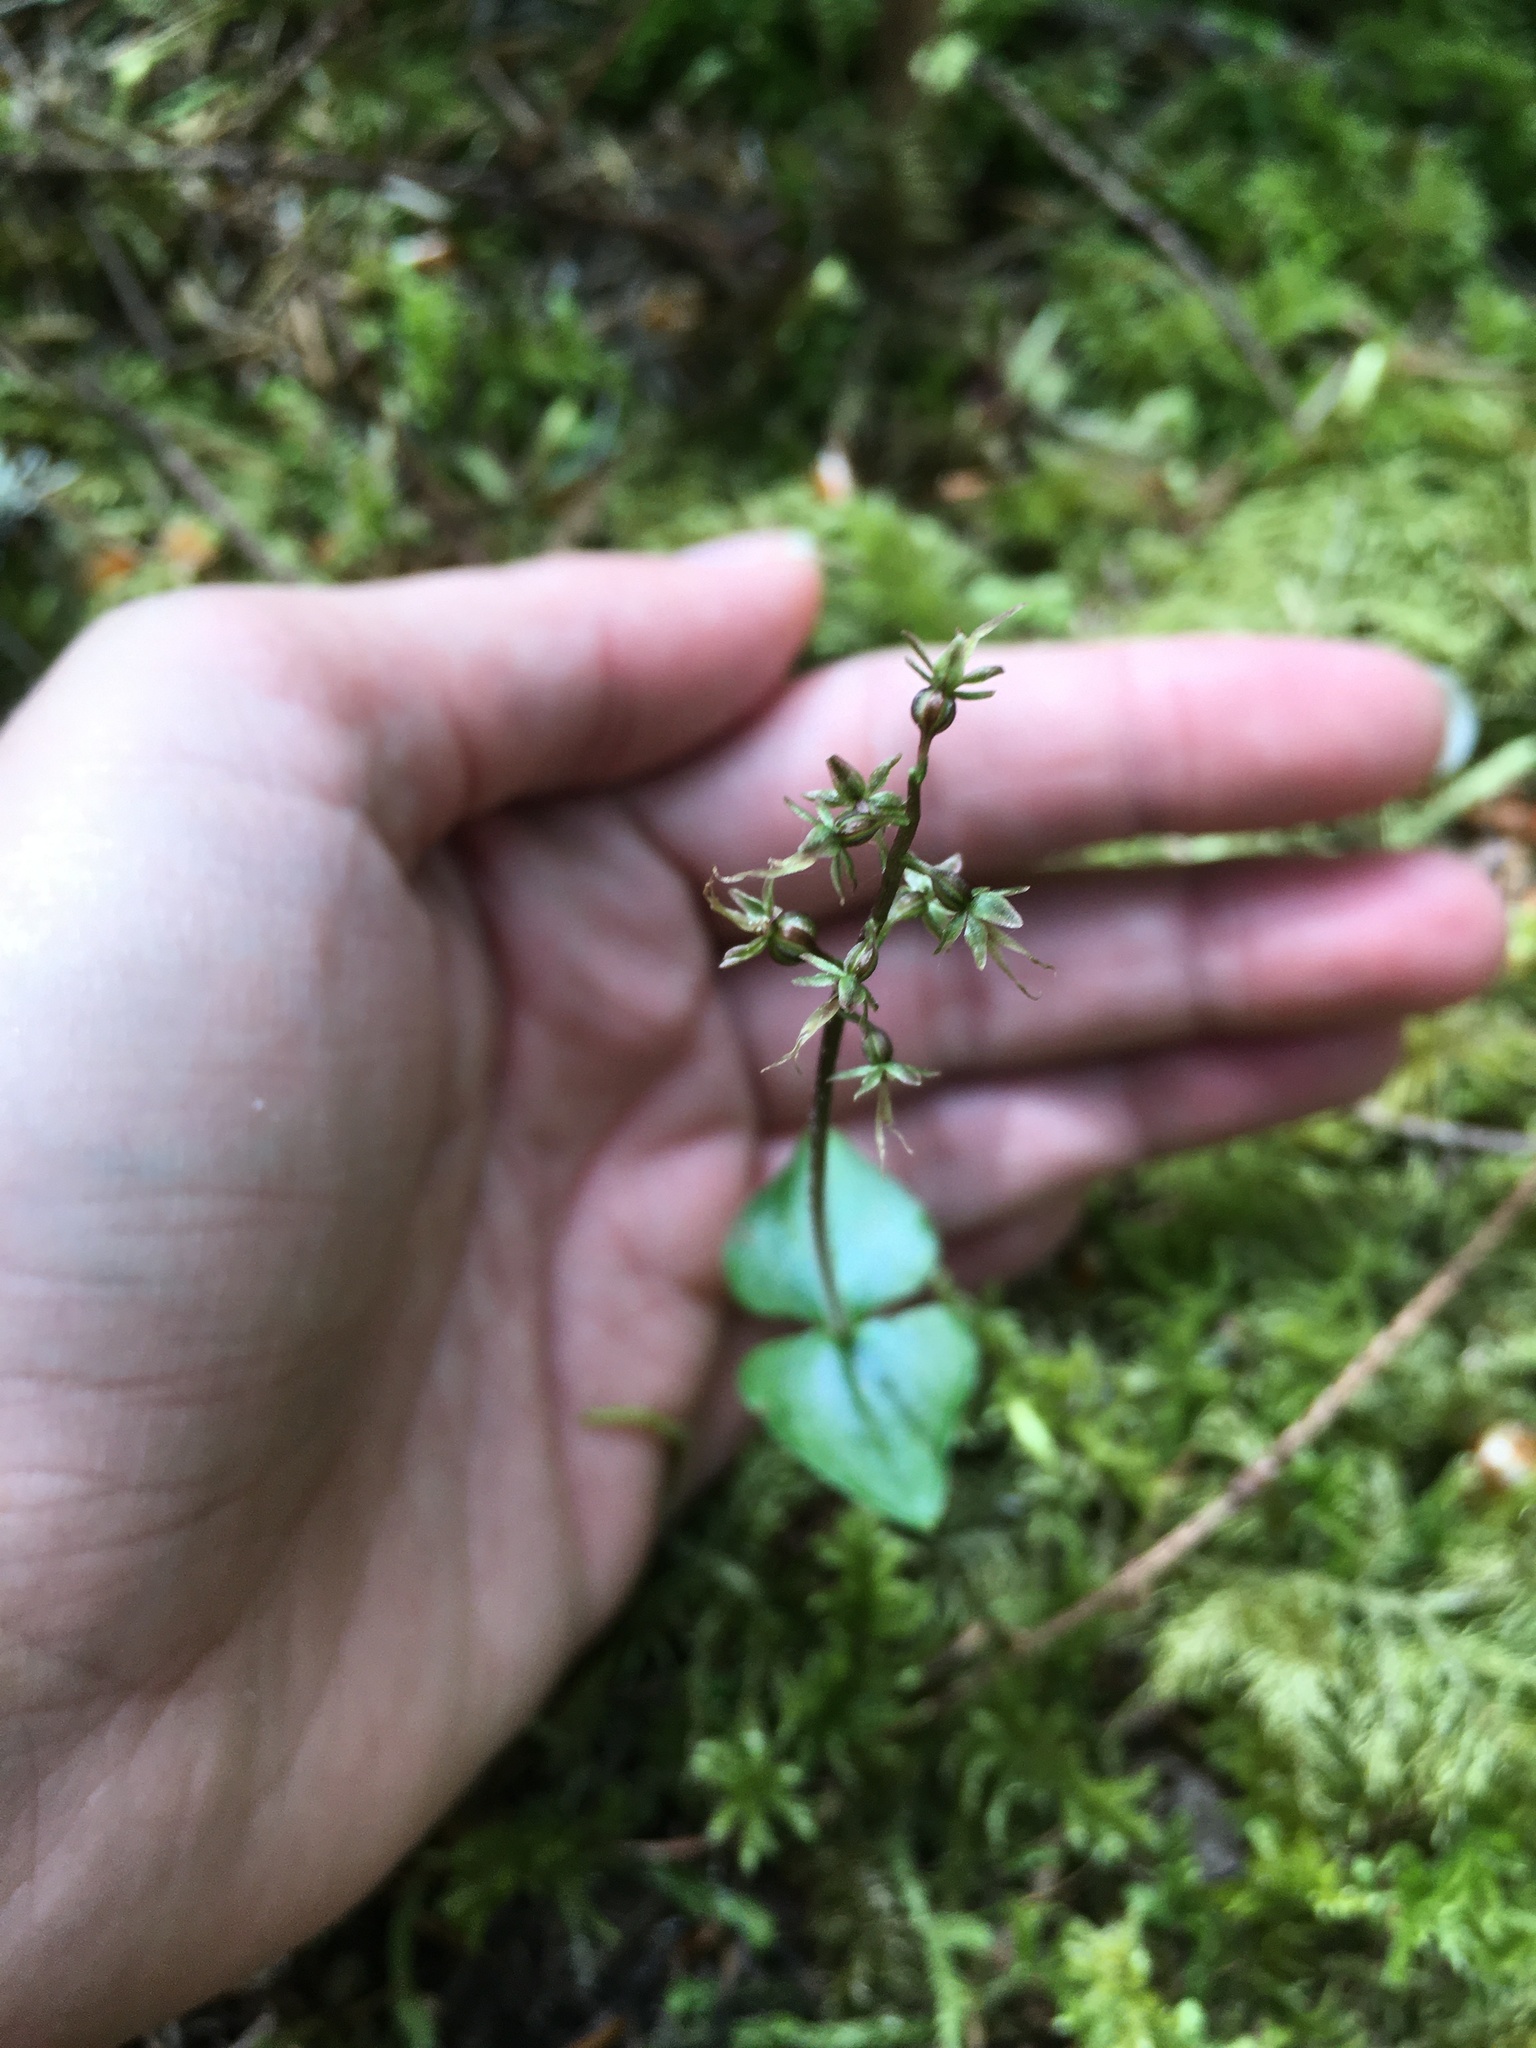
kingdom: Plantae
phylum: Tracheophyta
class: Liliopsida
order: Asparagales
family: Orchidaceae
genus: Neottia
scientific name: Neottia cordata
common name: Lesser twayblade
